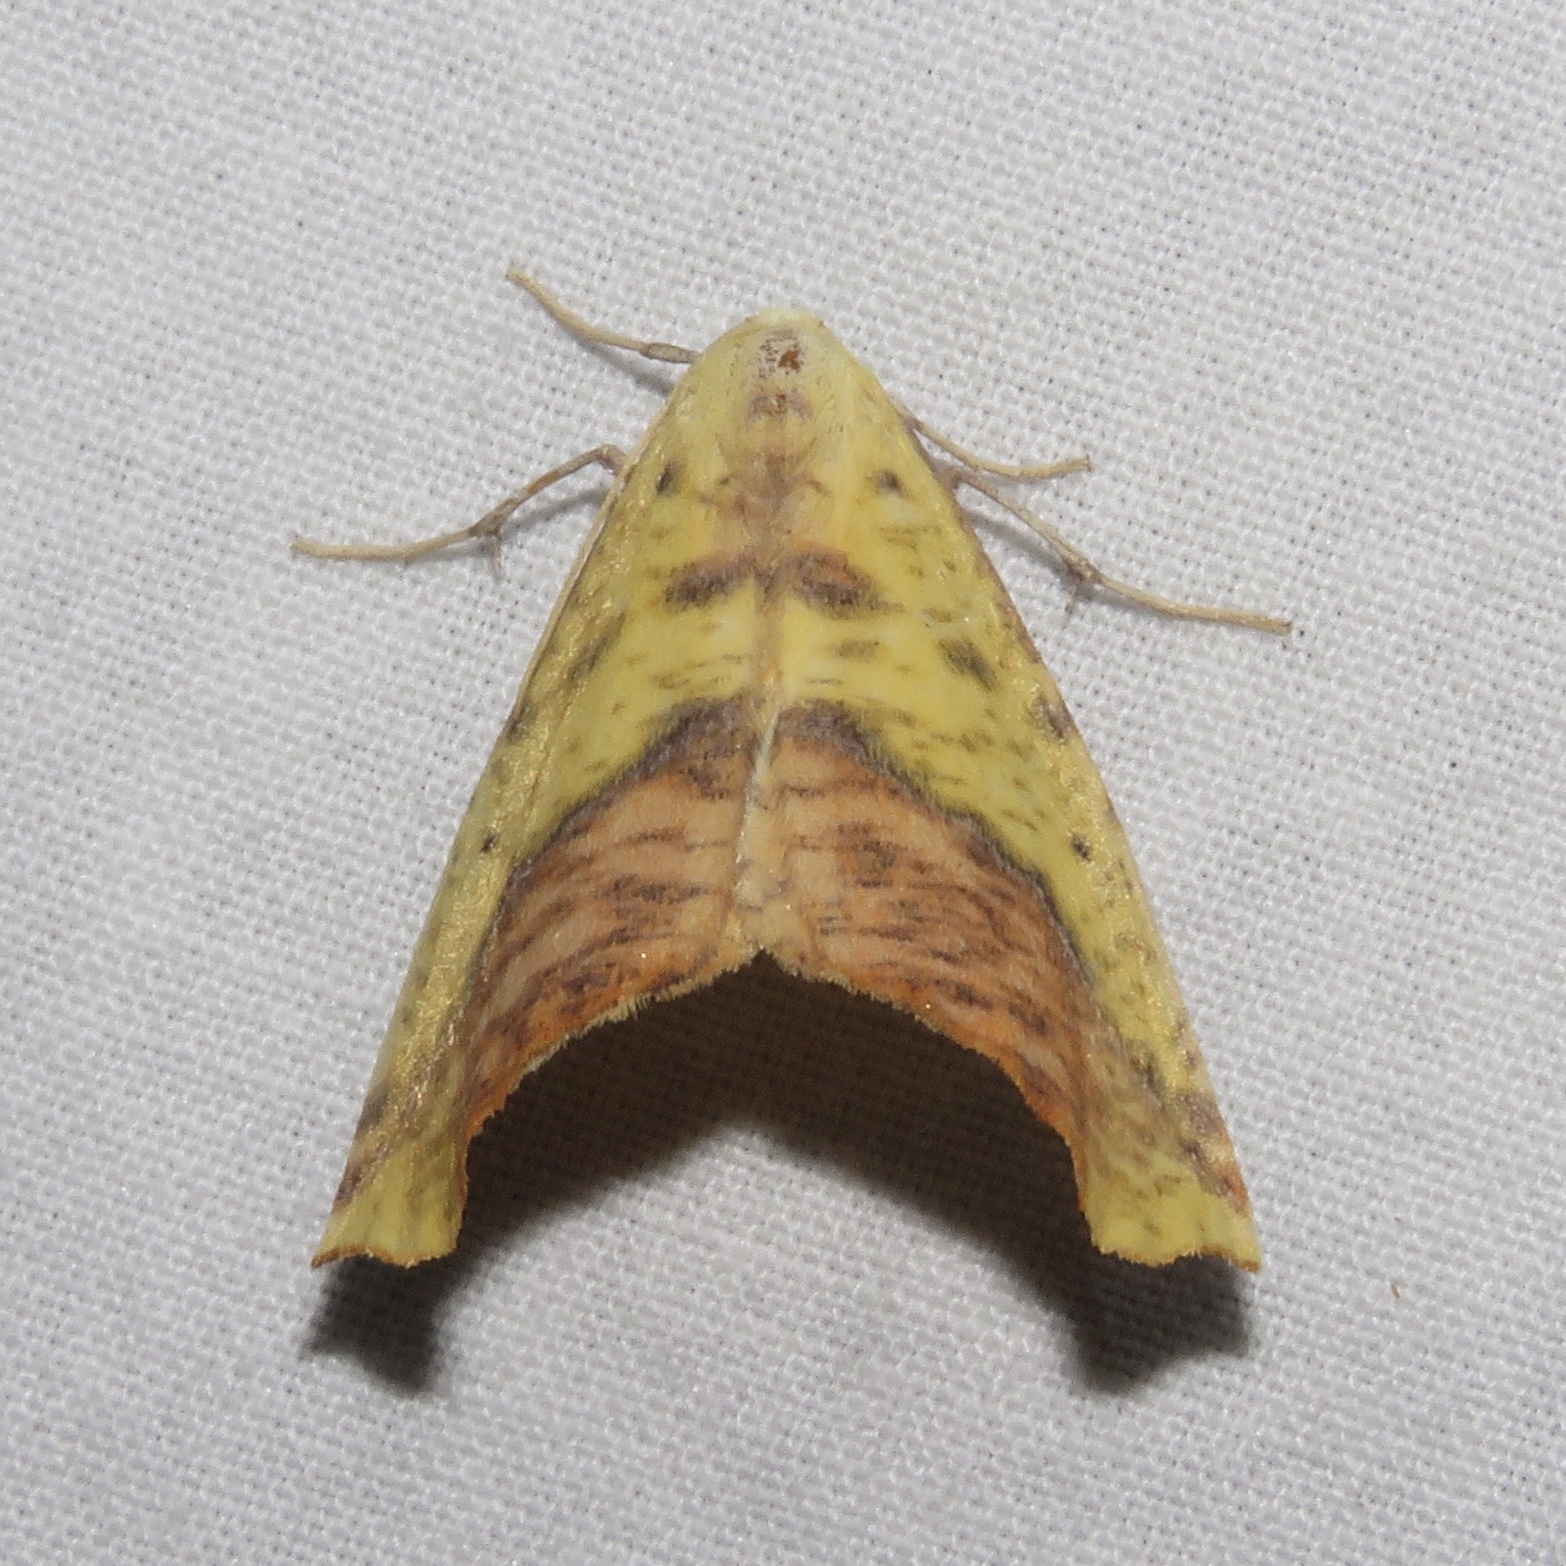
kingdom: Animalia
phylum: Arthropoda
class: Insecta
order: Lepidoptera
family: Geometridae
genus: Sicya
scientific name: Sicya macularia
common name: Sharp-lined yellow
